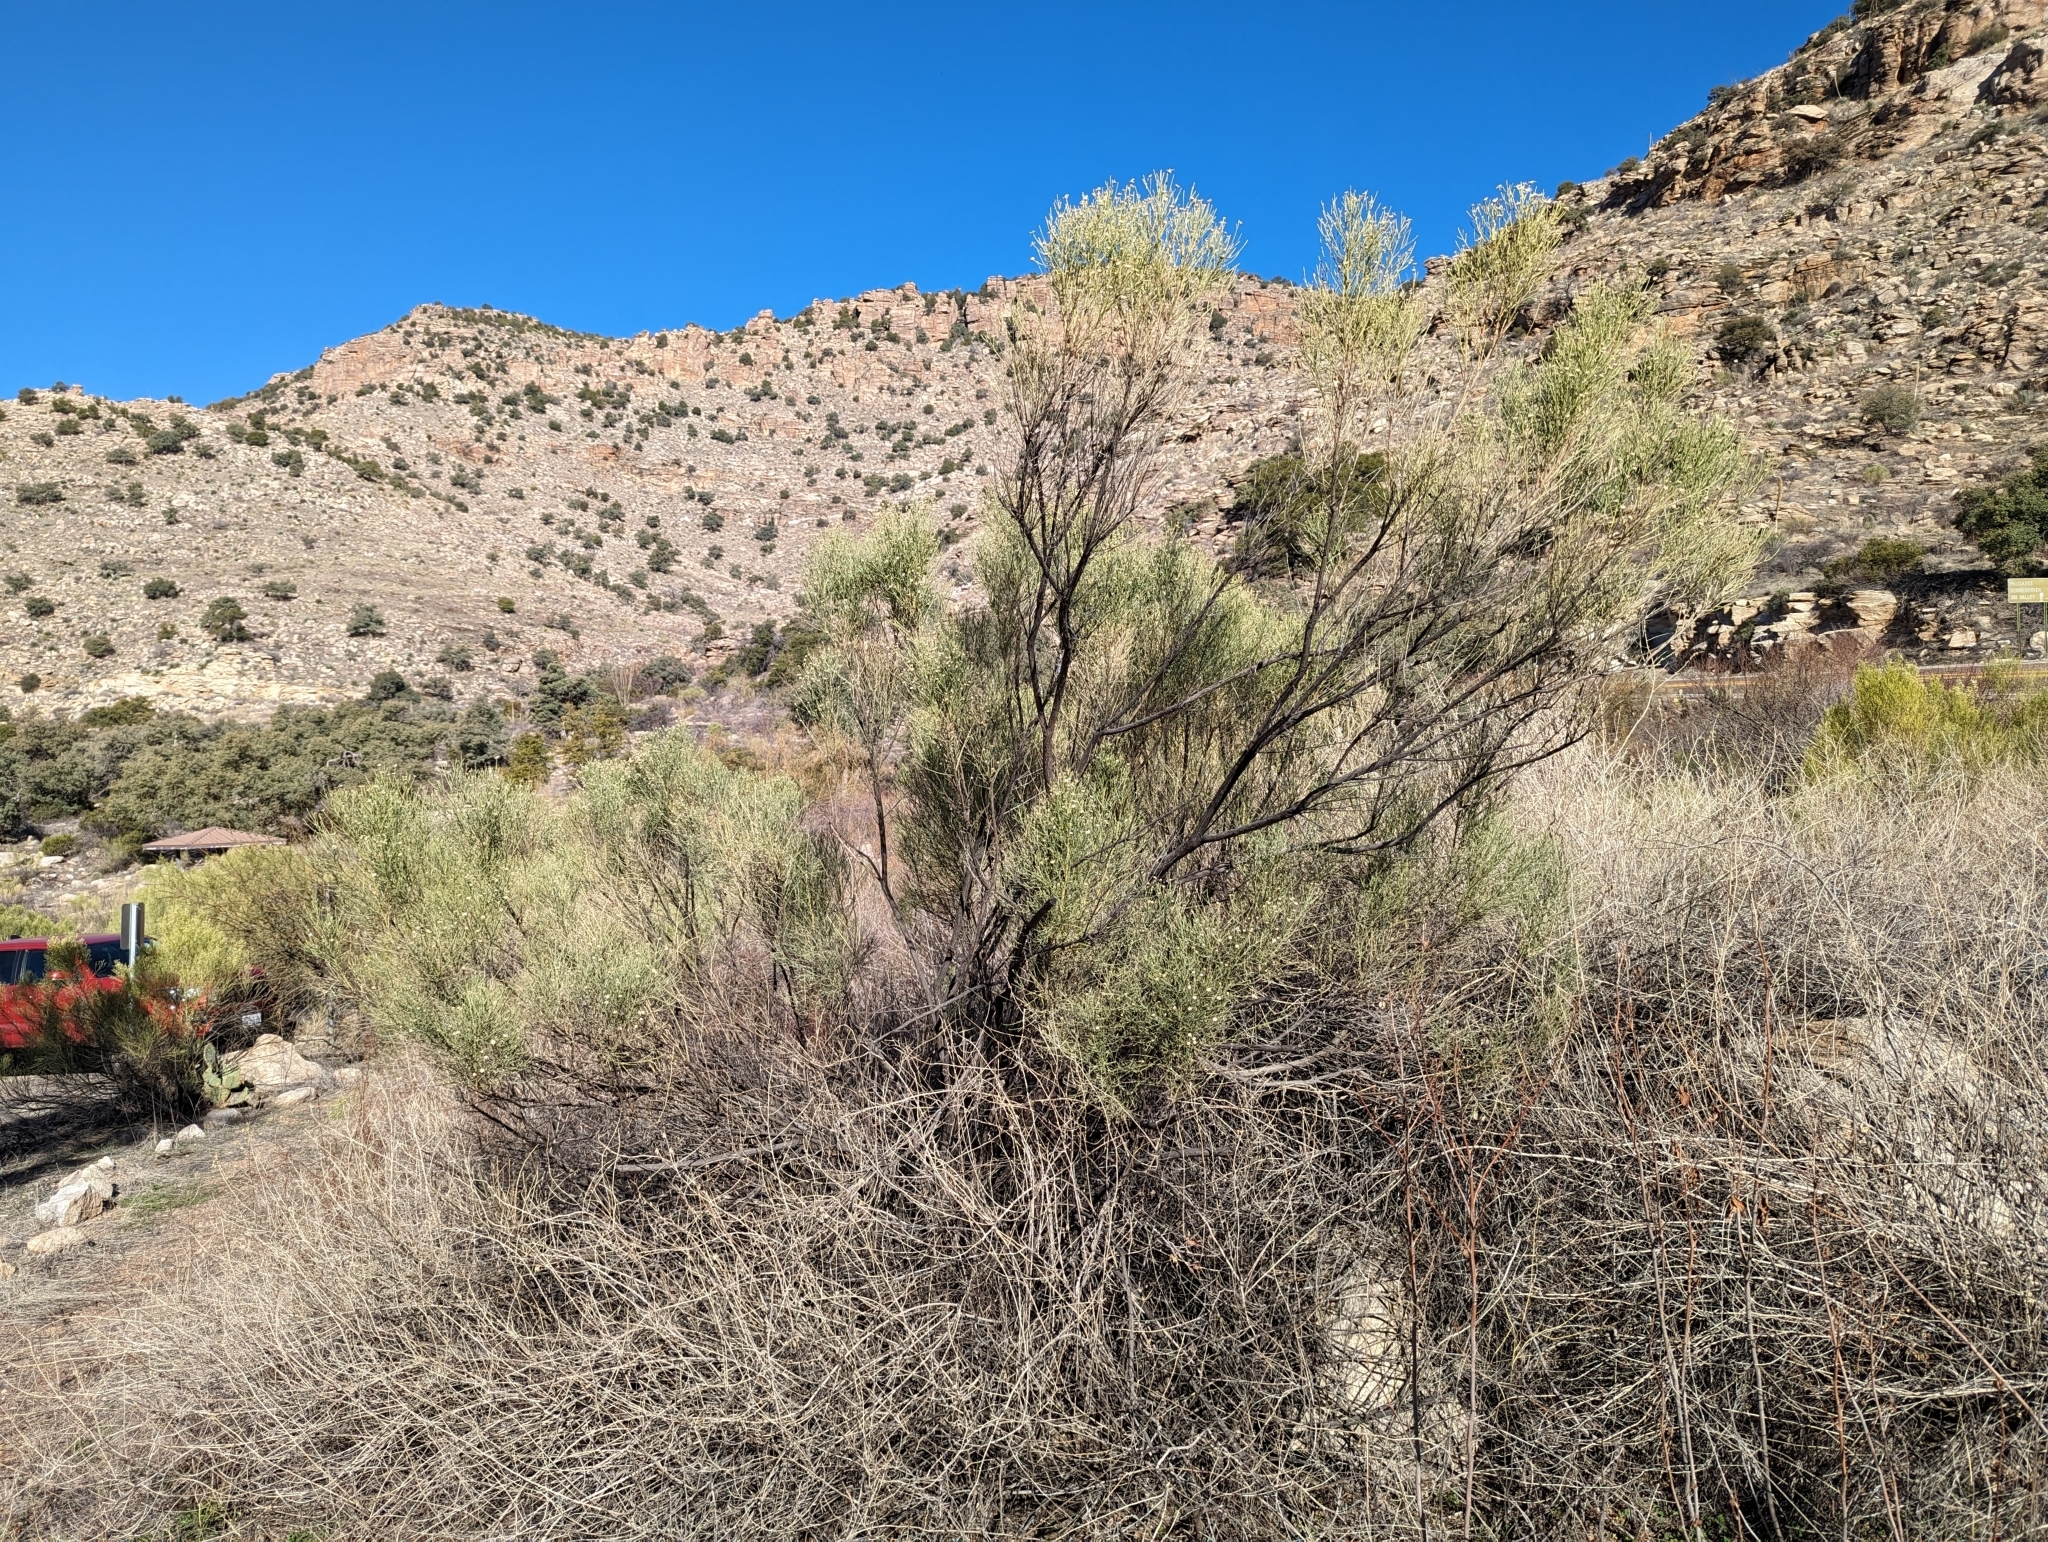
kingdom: Plantae
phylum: Tracheophyta
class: Magnoliopsida
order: Asterales
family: Asteraceae
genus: Baccharis
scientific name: Baccharis sarothroides
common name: Desert-broom
